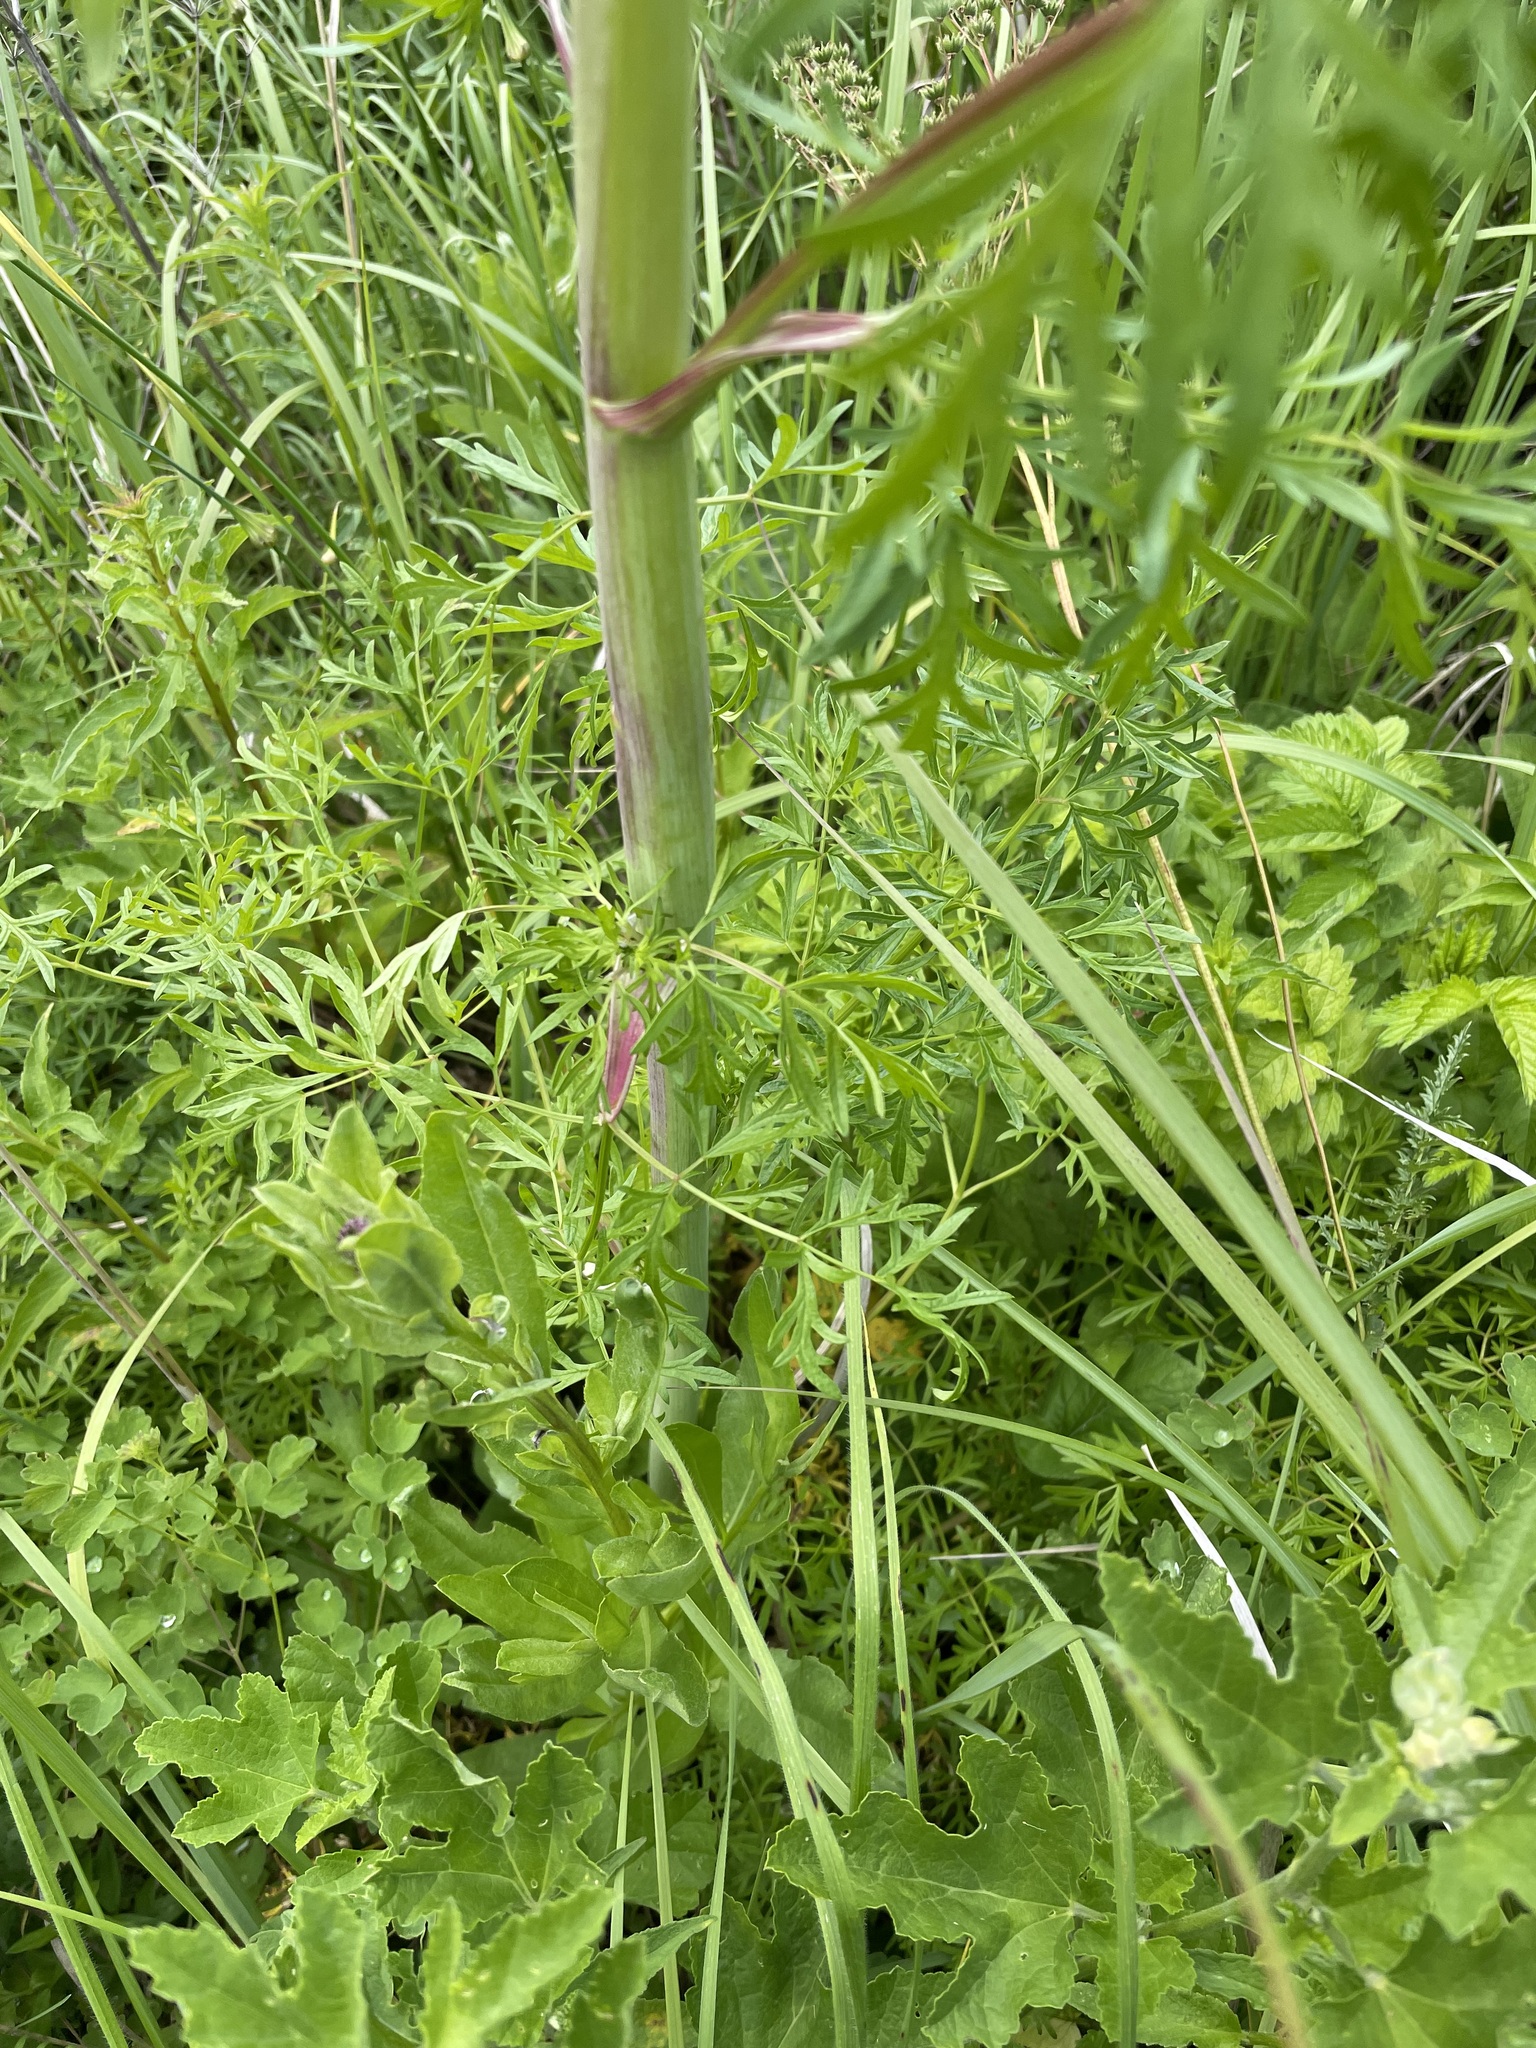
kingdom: Plantae
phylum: Tracheophyta
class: Magnoliopsida
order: Apiales
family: Apiaceae
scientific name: Apiaceae
